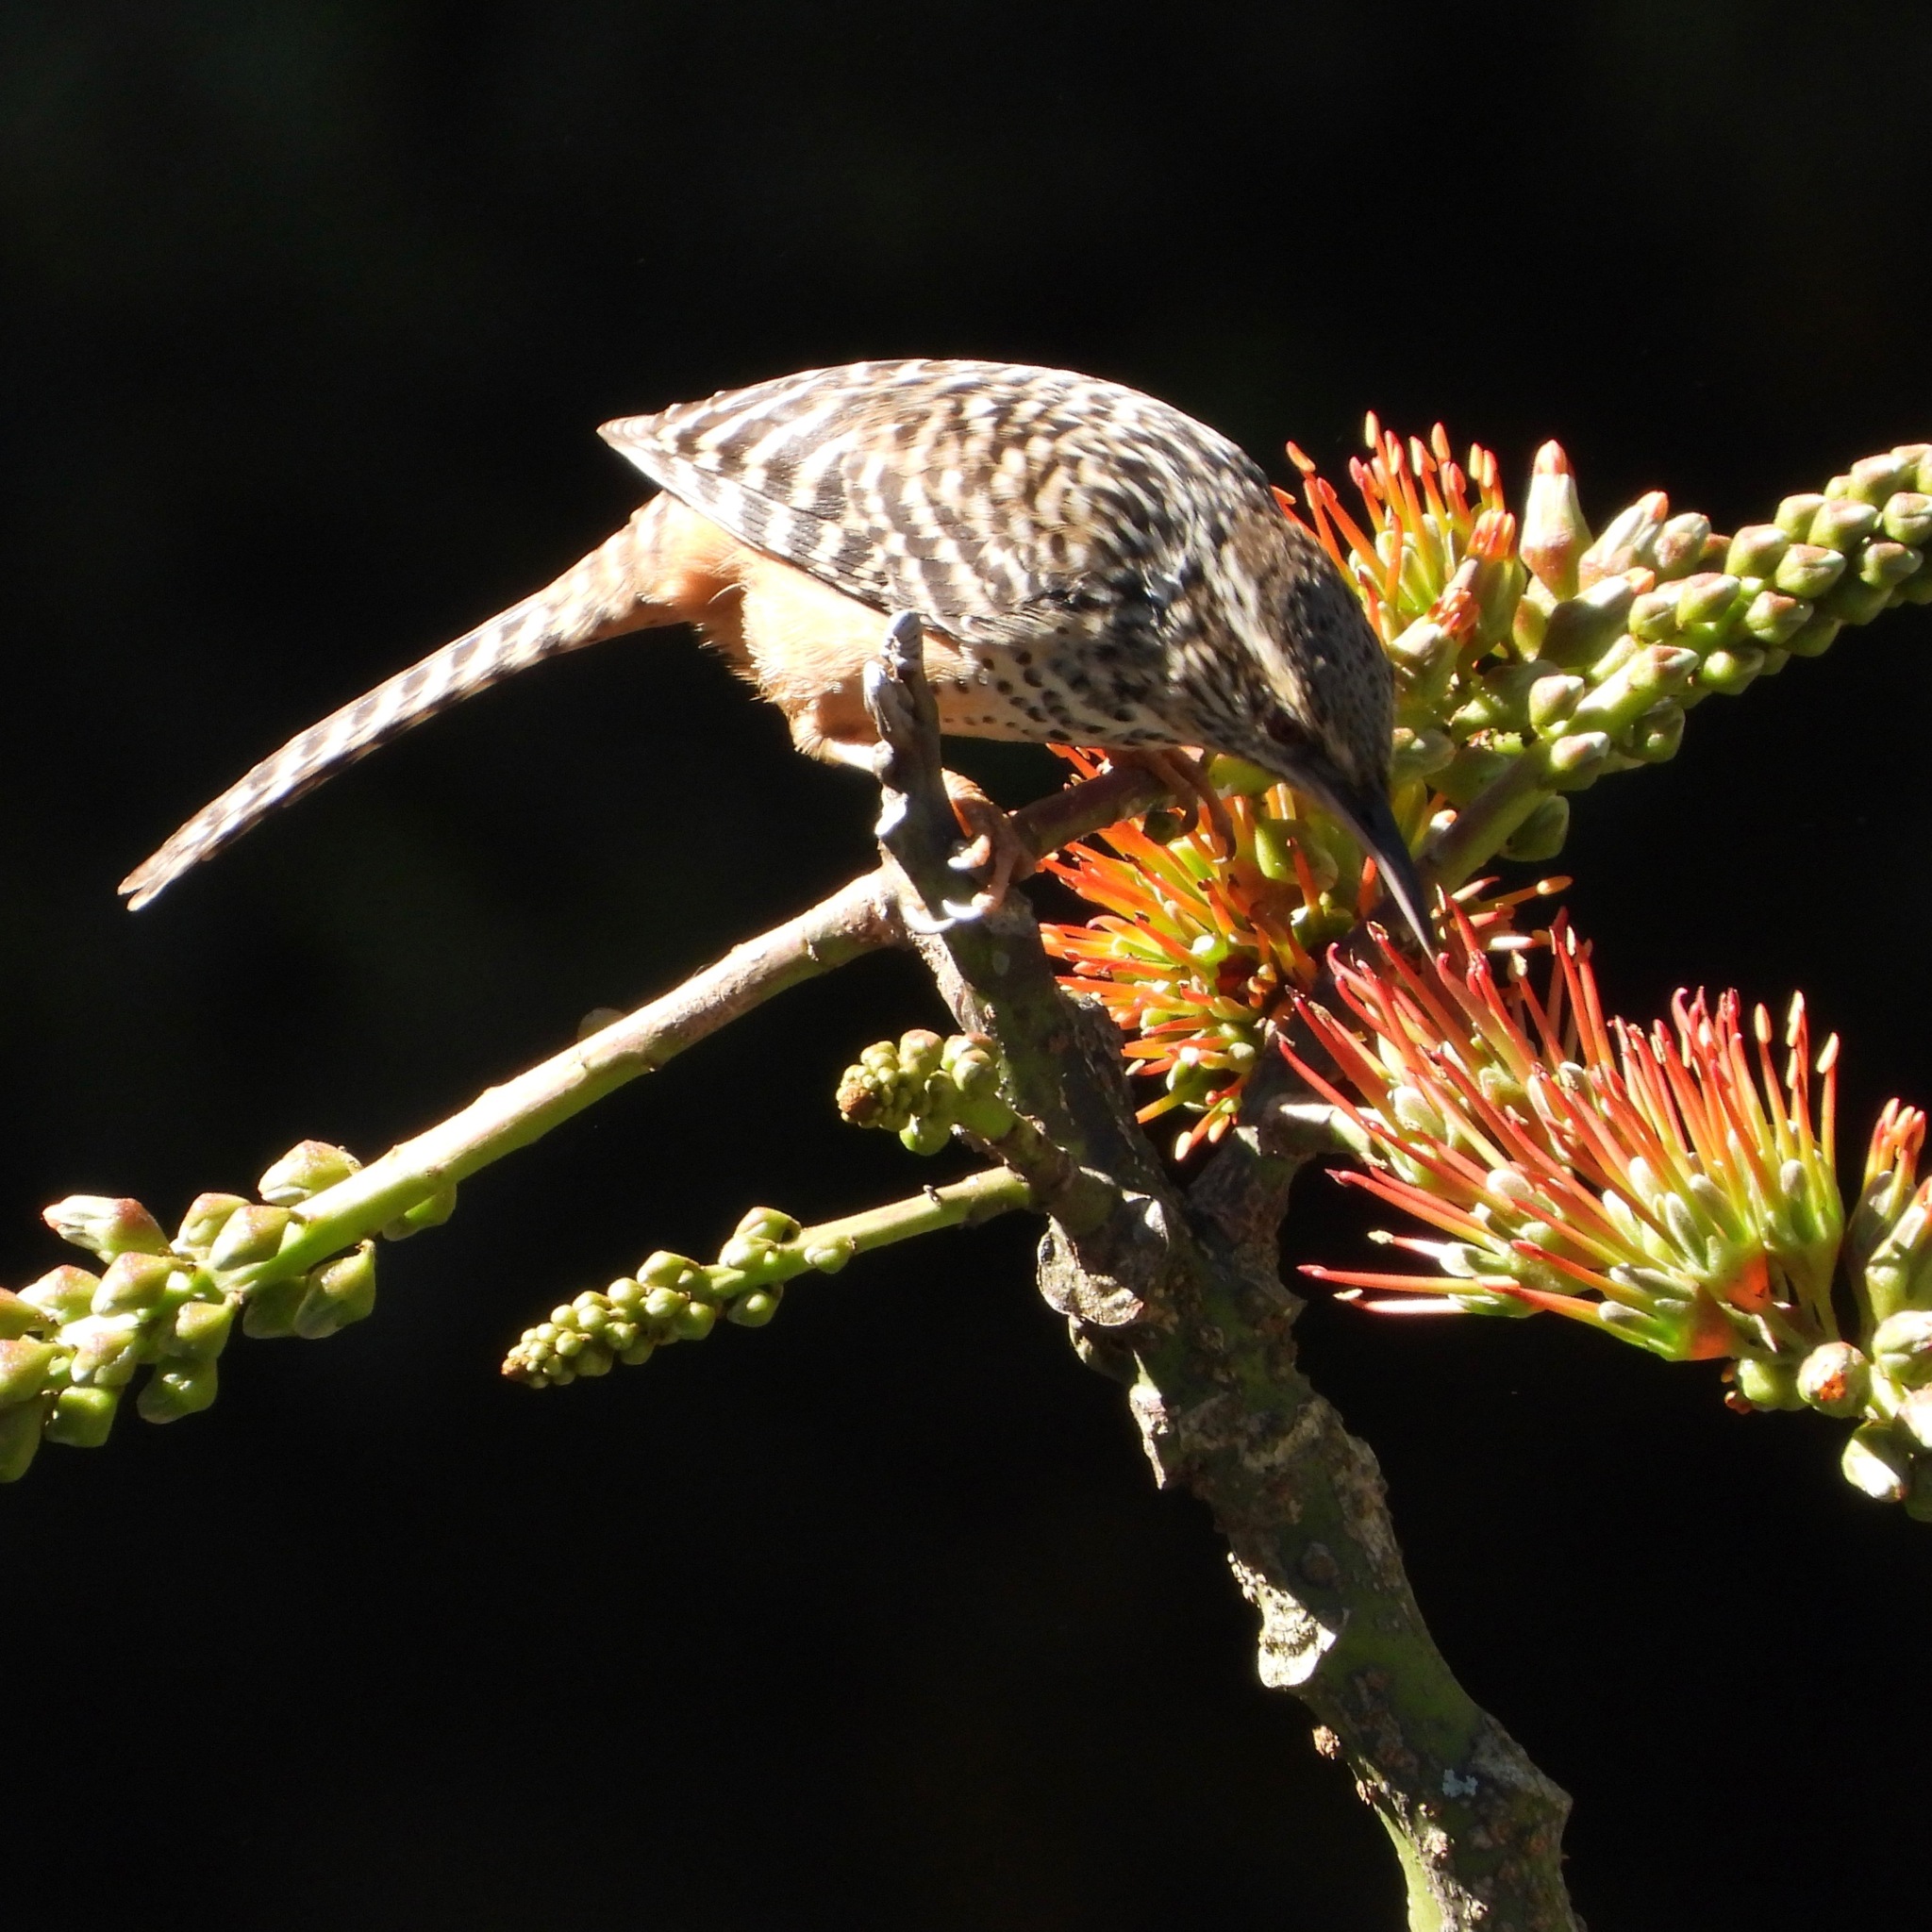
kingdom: Animalia
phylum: Chordata
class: Aves
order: Passeriformes
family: Troglodytidae
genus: Campylorhynchus
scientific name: Campylorhynchus zonatus
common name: Band-backed wren
